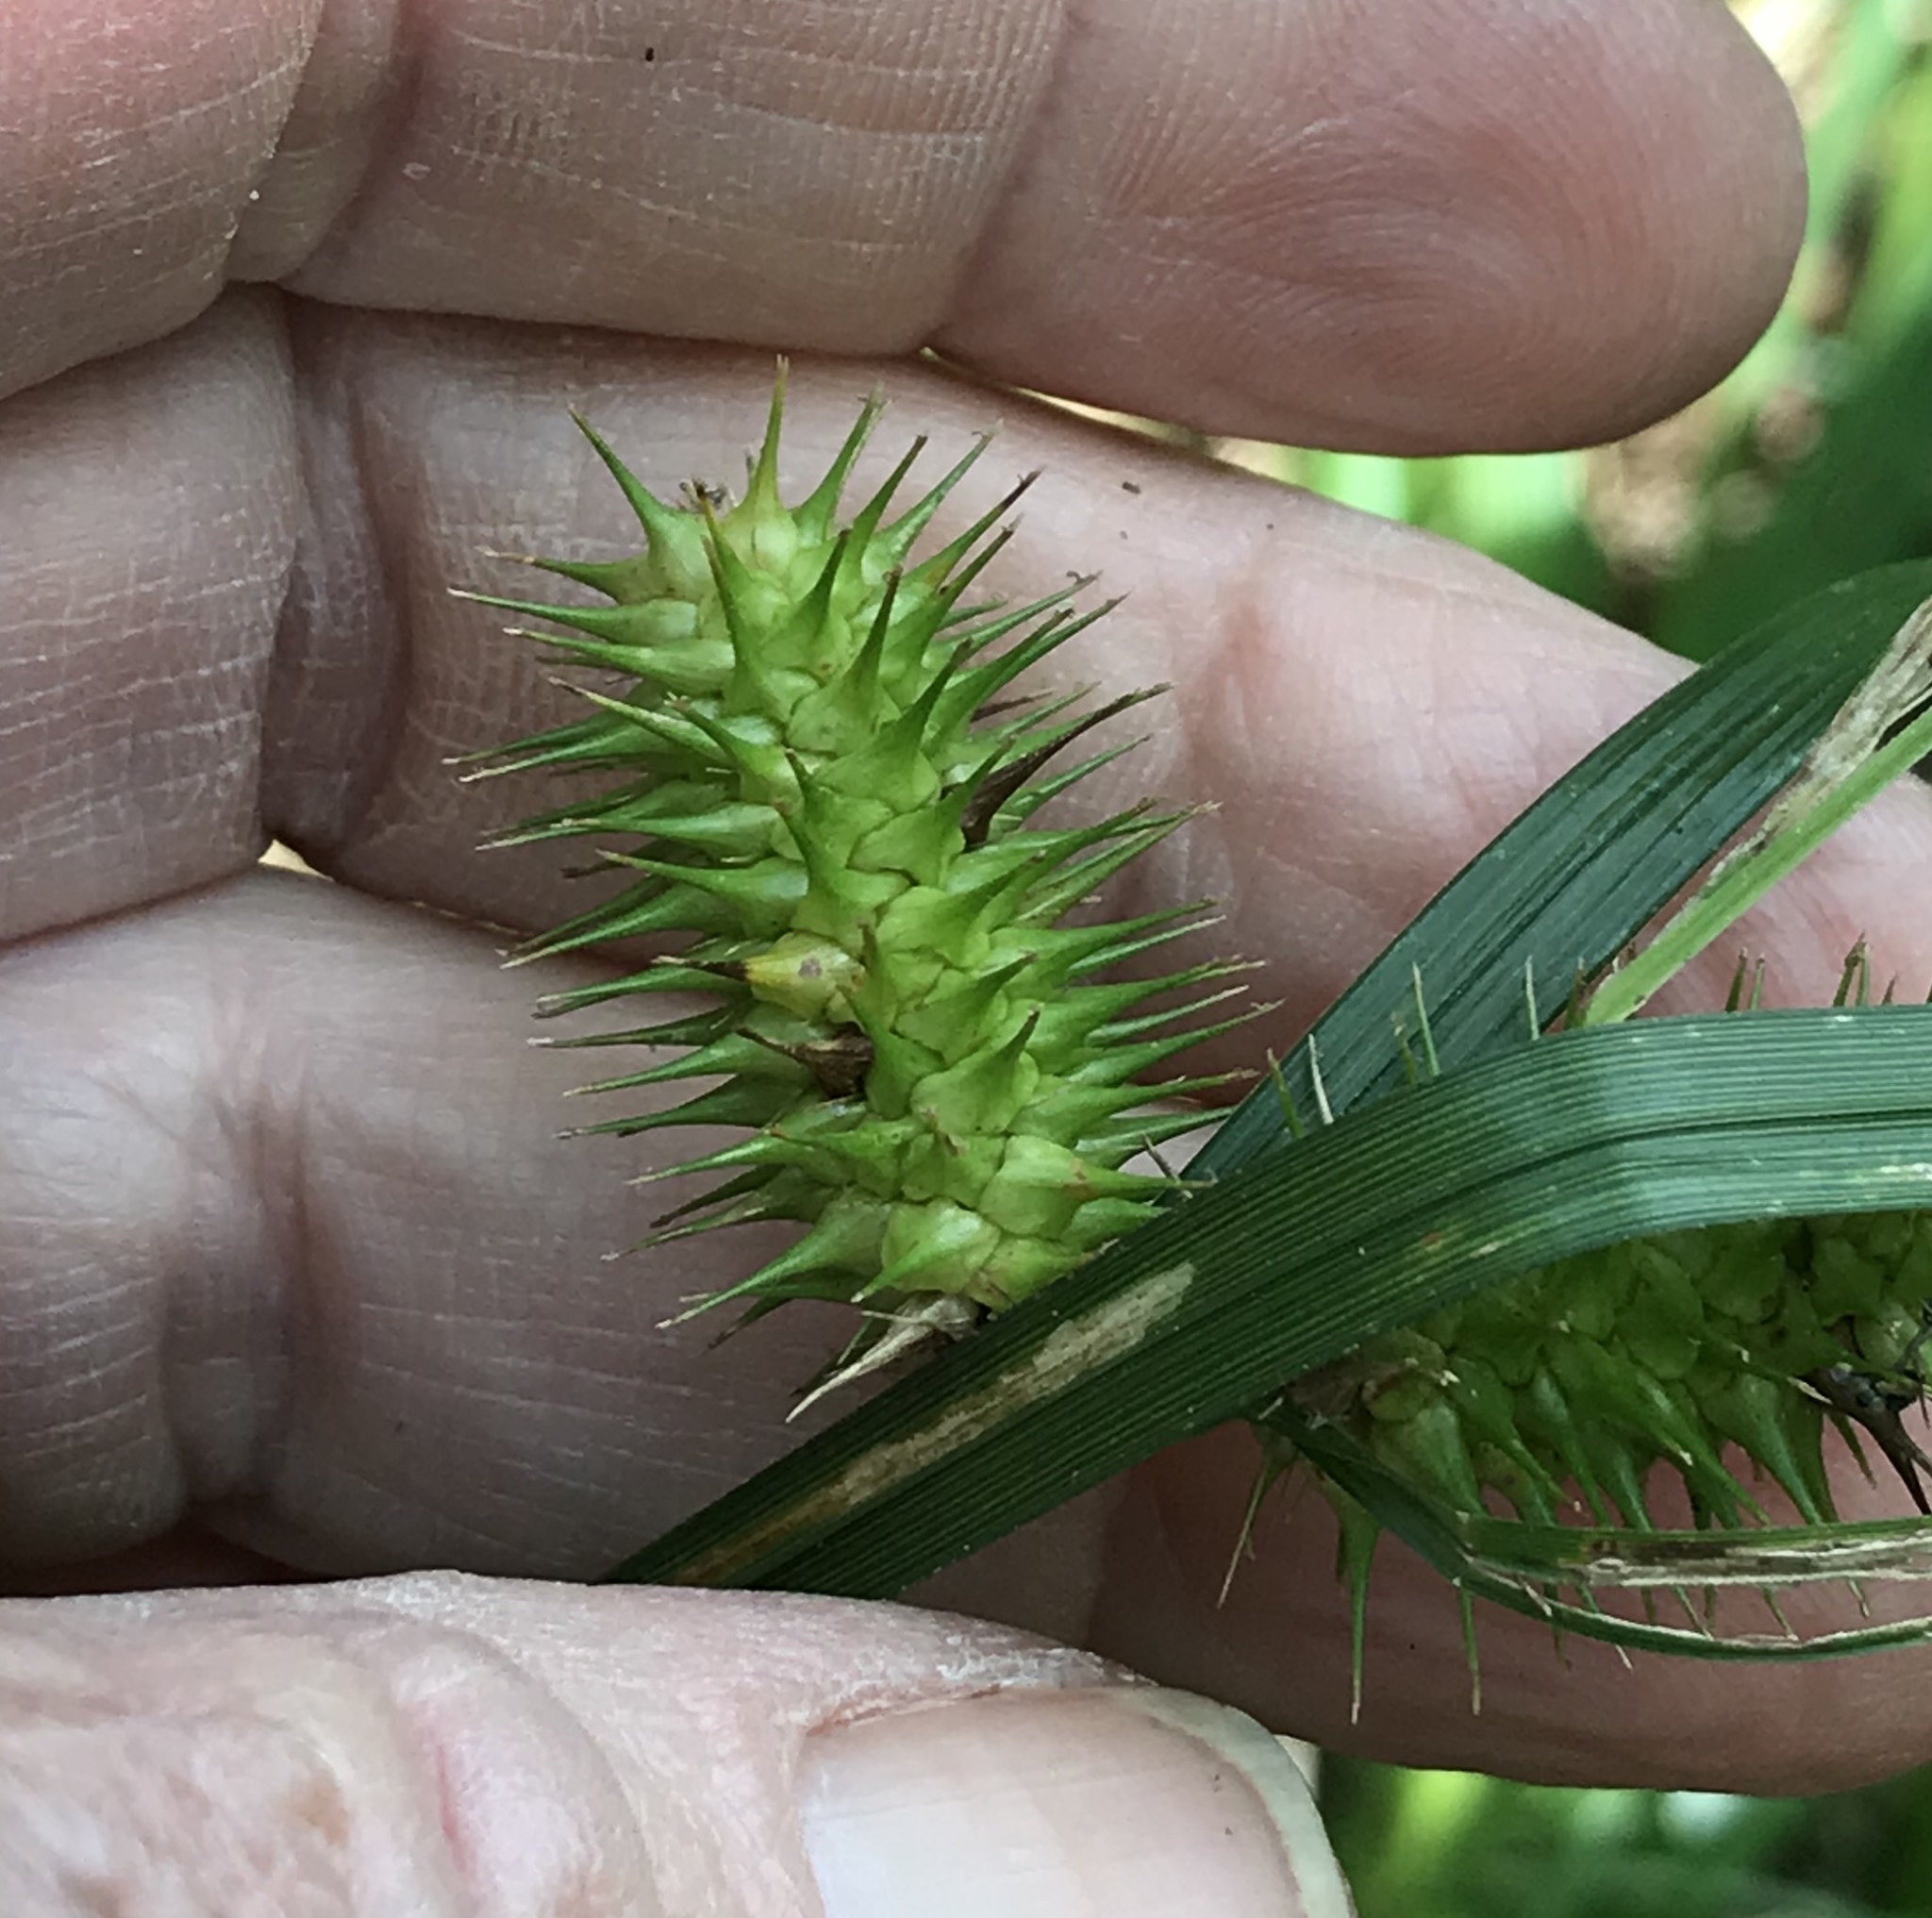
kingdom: Plantae
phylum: Tracheophyta
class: Liliopsida
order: Poales
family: Cyperaceae
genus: Carex
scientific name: Carex lurida
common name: Sallow sedge
